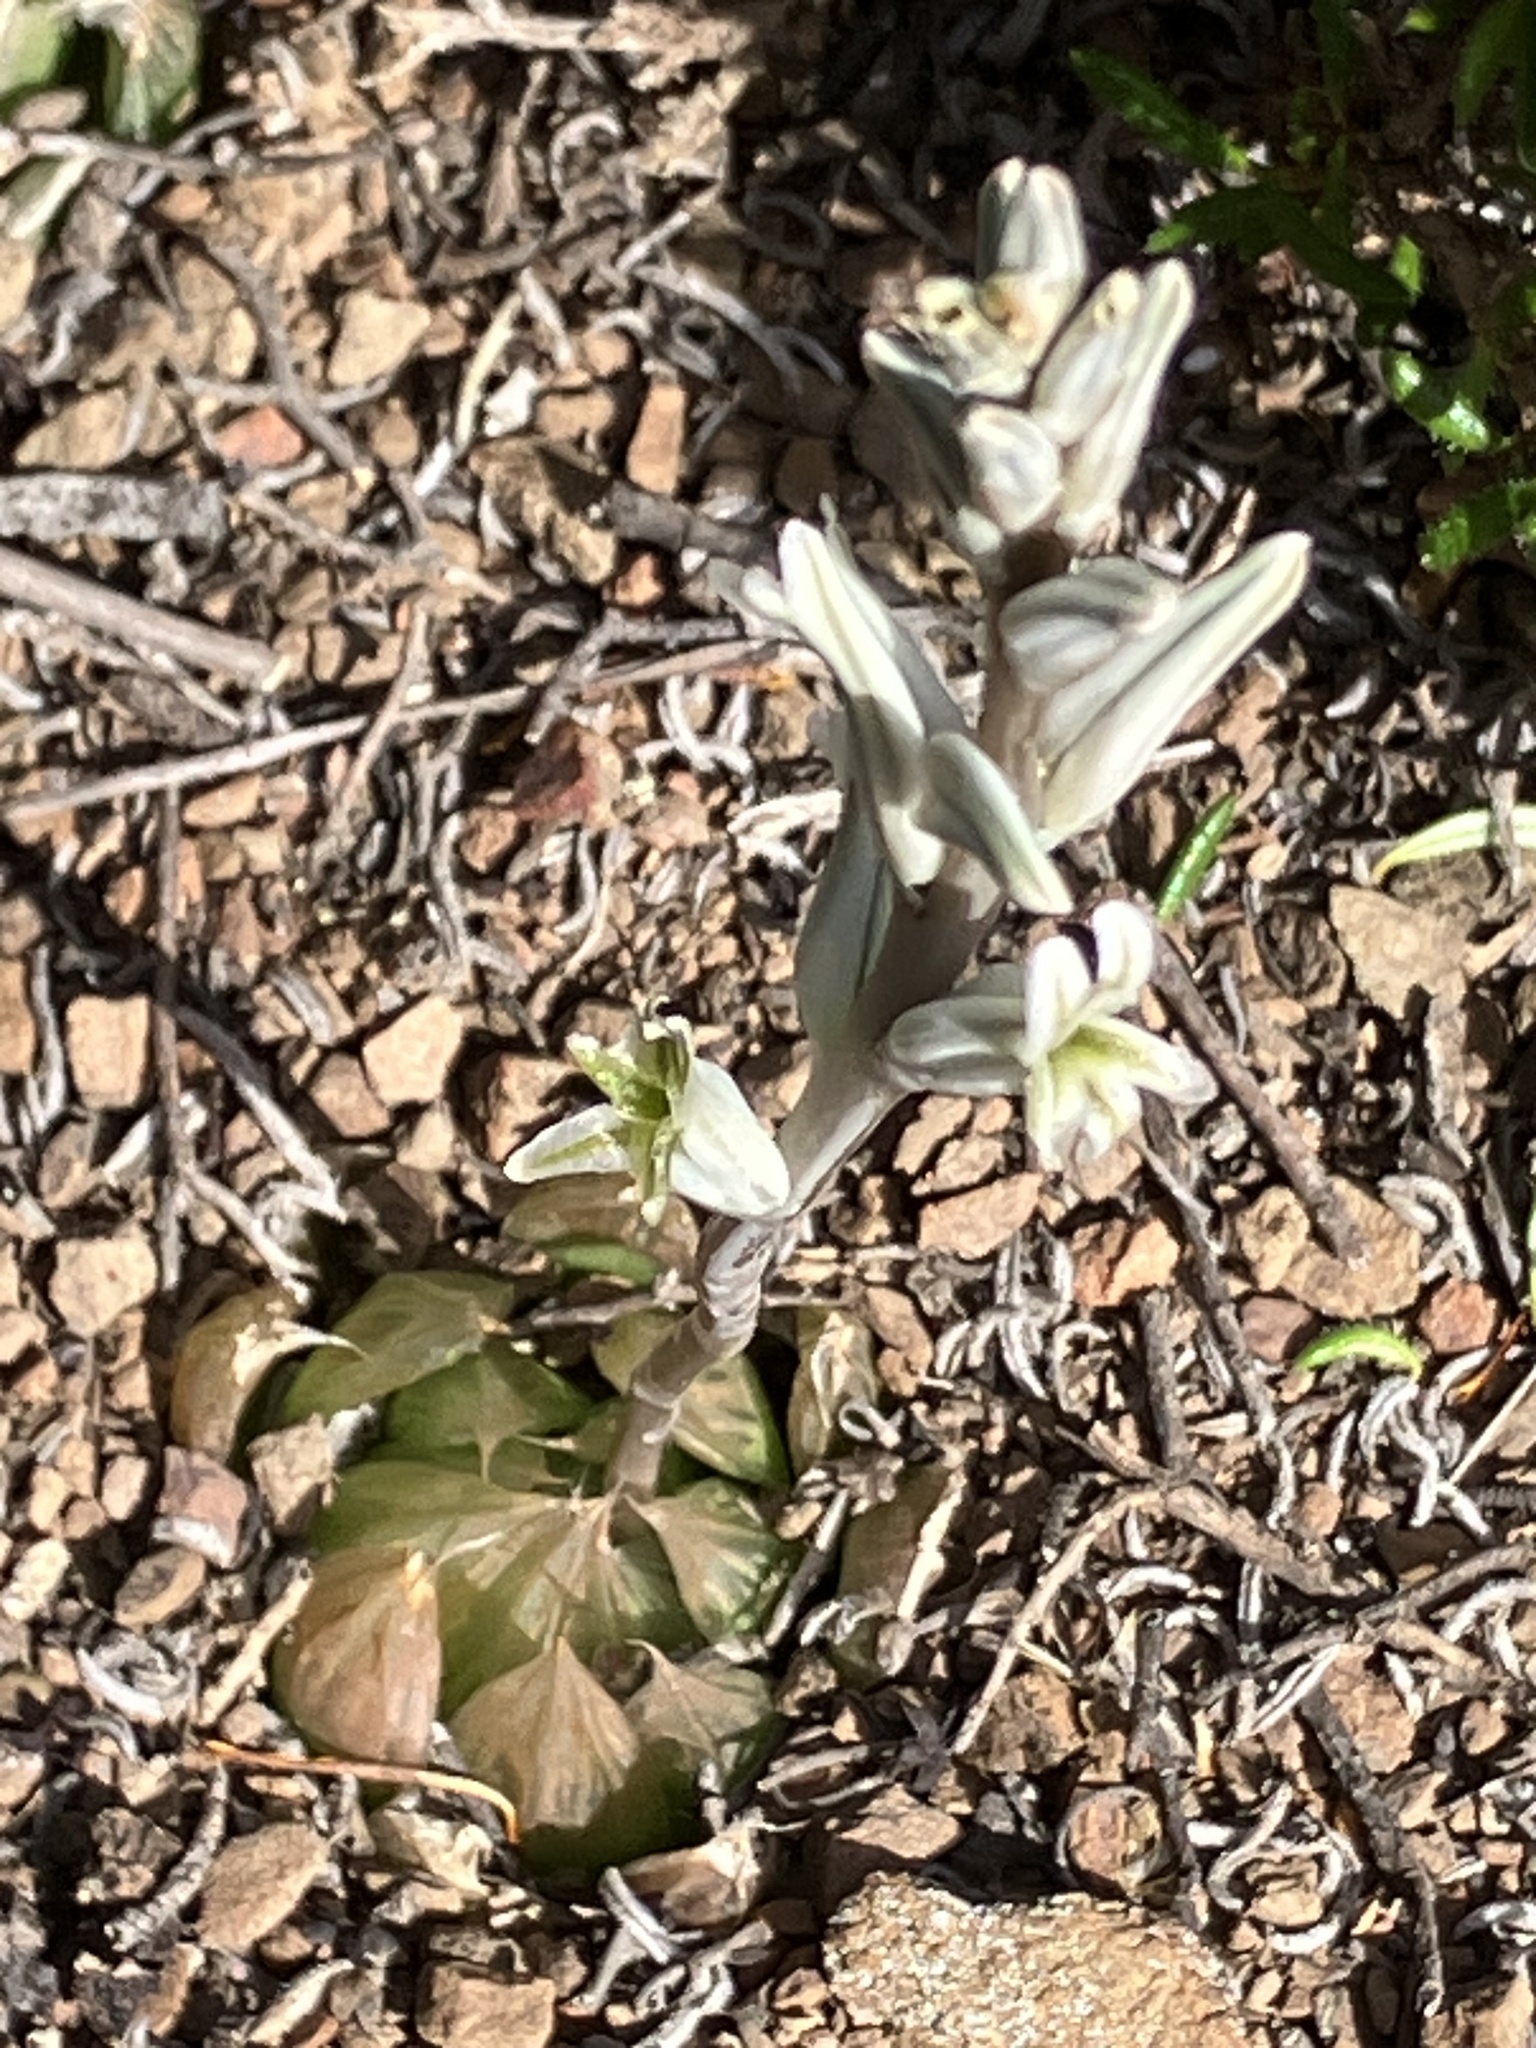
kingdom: Plantae
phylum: Tracheophyta
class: Liliopsida
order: Asparagales
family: Asphodelaceae
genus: Haworthia
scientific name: Haworthia mucronata
